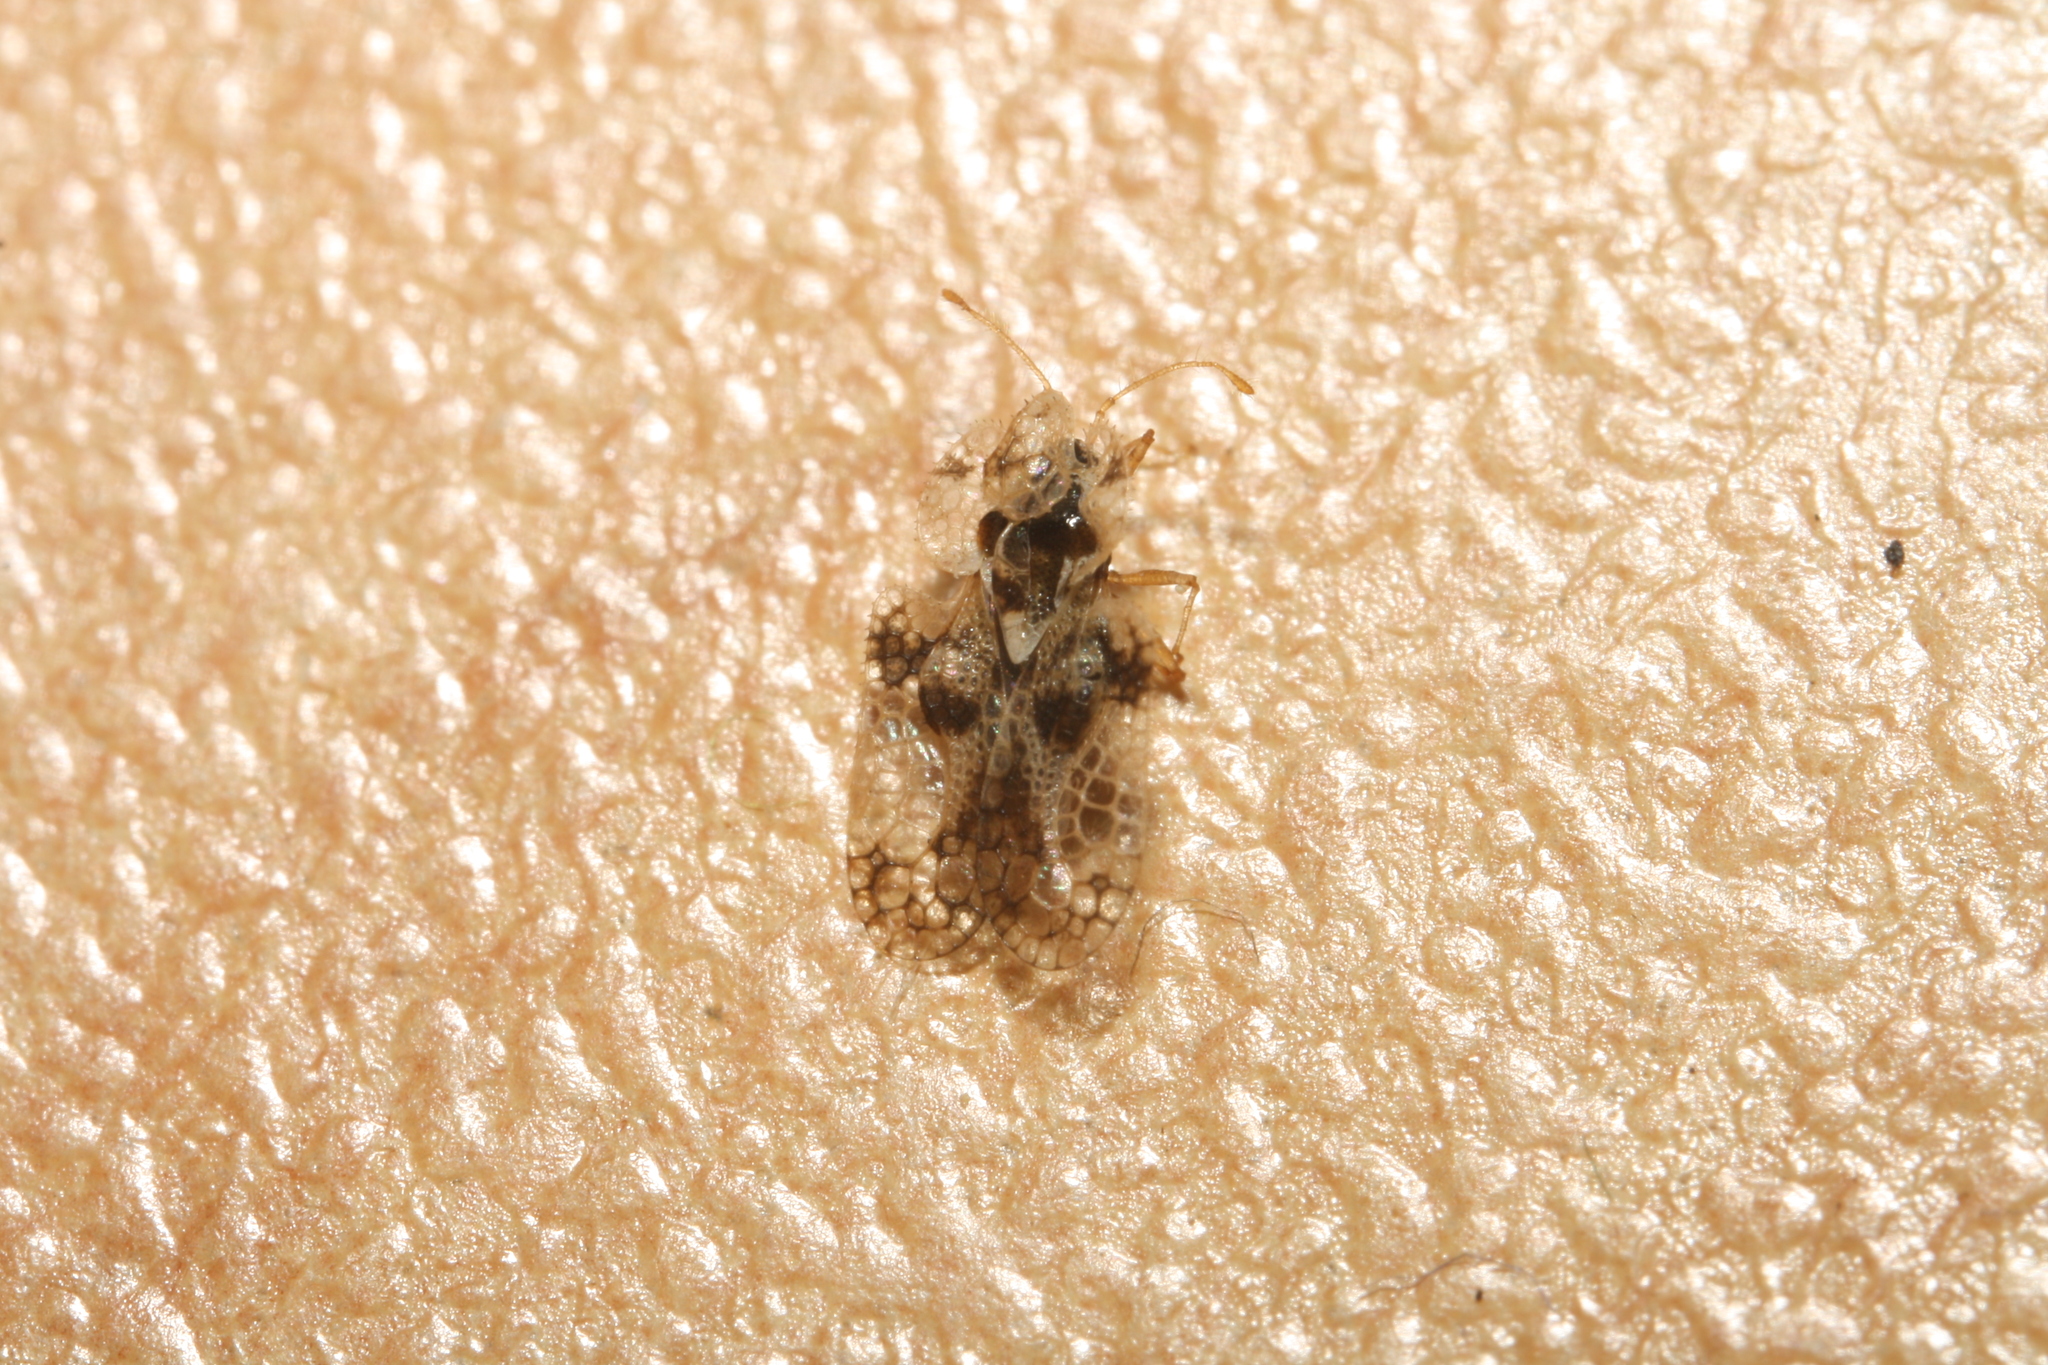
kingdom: Animalia
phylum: Arthropoda
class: Insecta
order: Hemiptera
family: Tingidae
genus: Corythucha
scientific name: Corythucha arcuata
